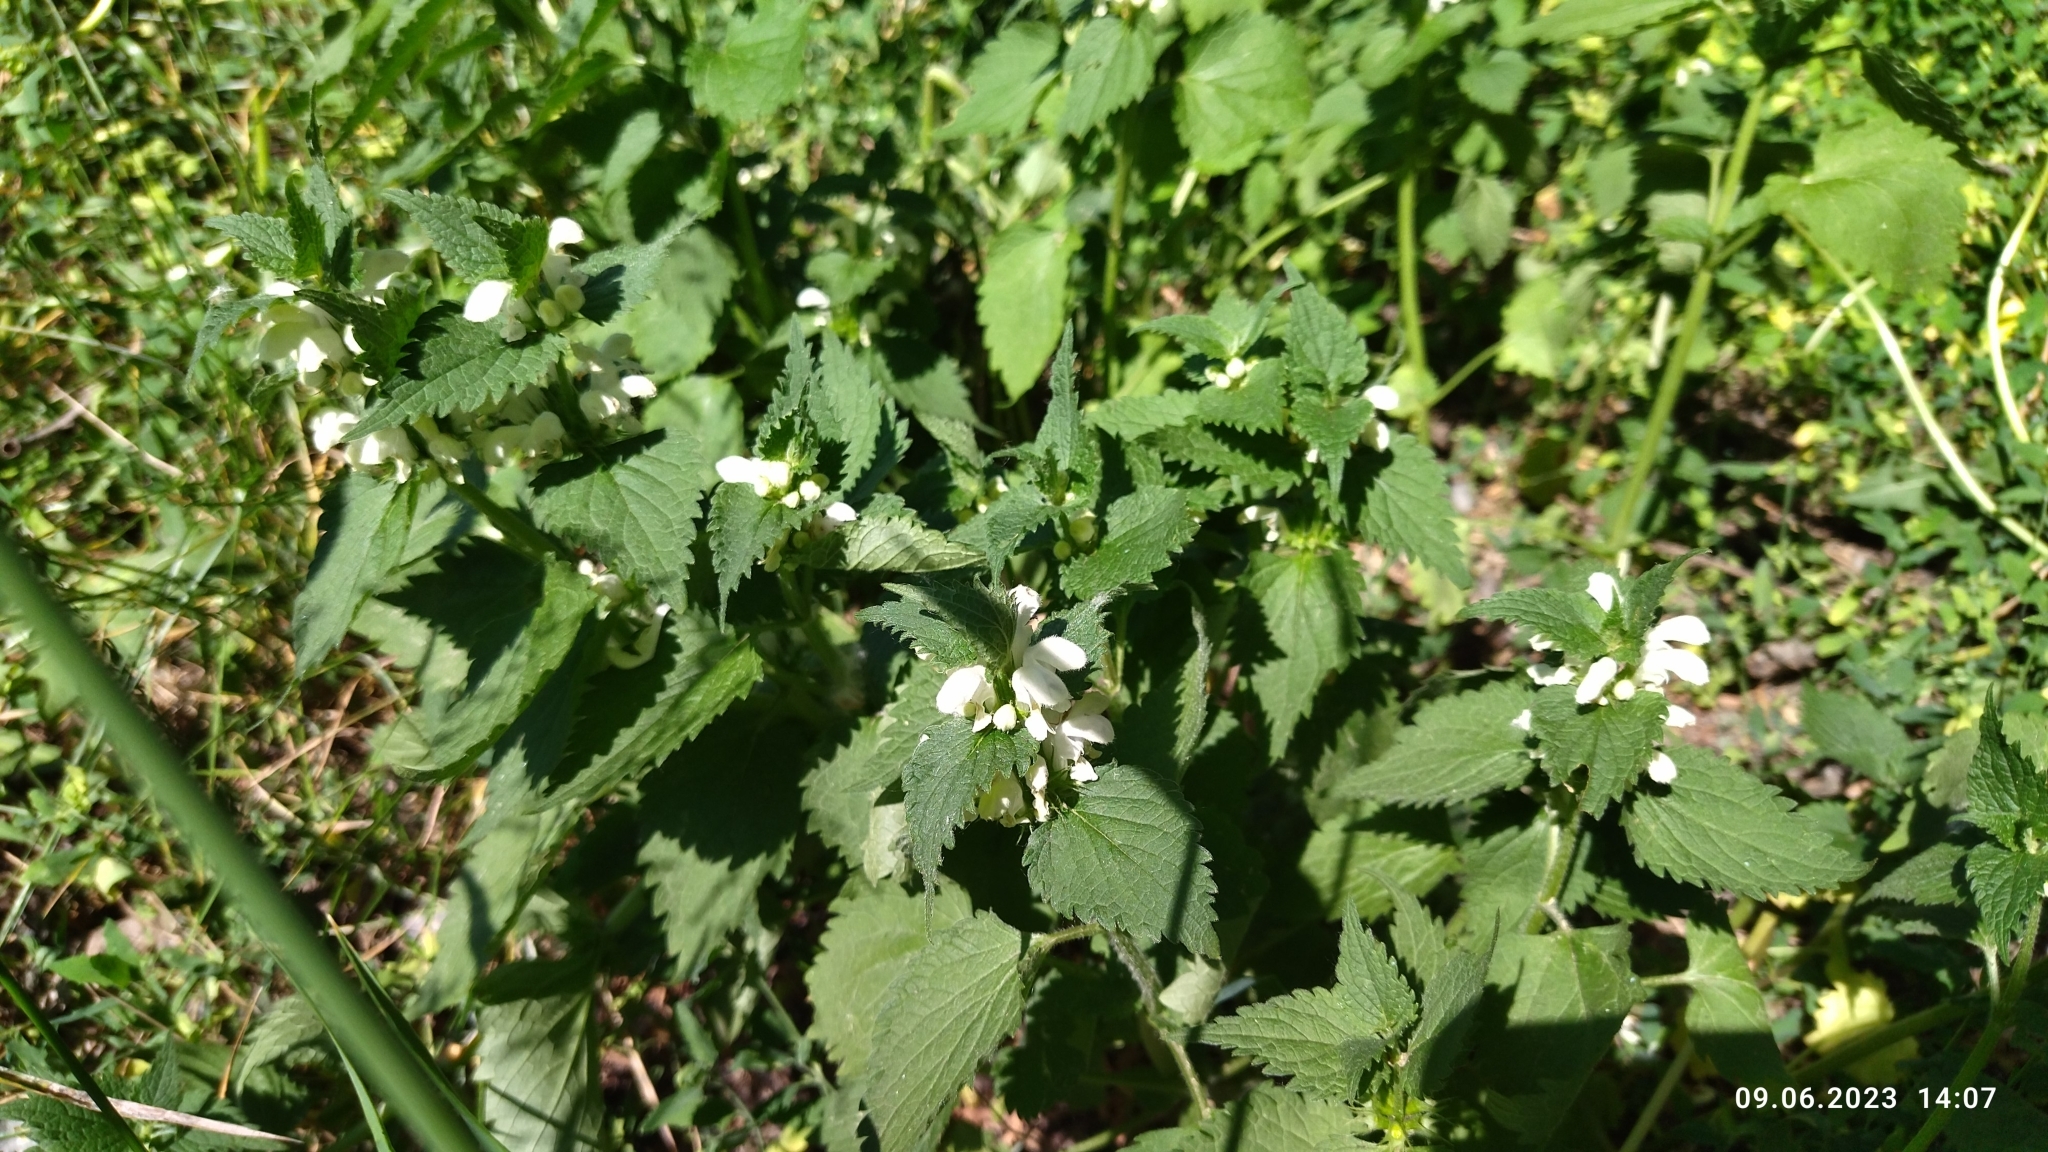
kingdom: Plantae
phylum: Tracheophyta
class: Magnoliopsida
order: Lamiales
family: Lamiaceae
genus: Lamium
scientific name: Lamium album
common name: White dead-nettle
